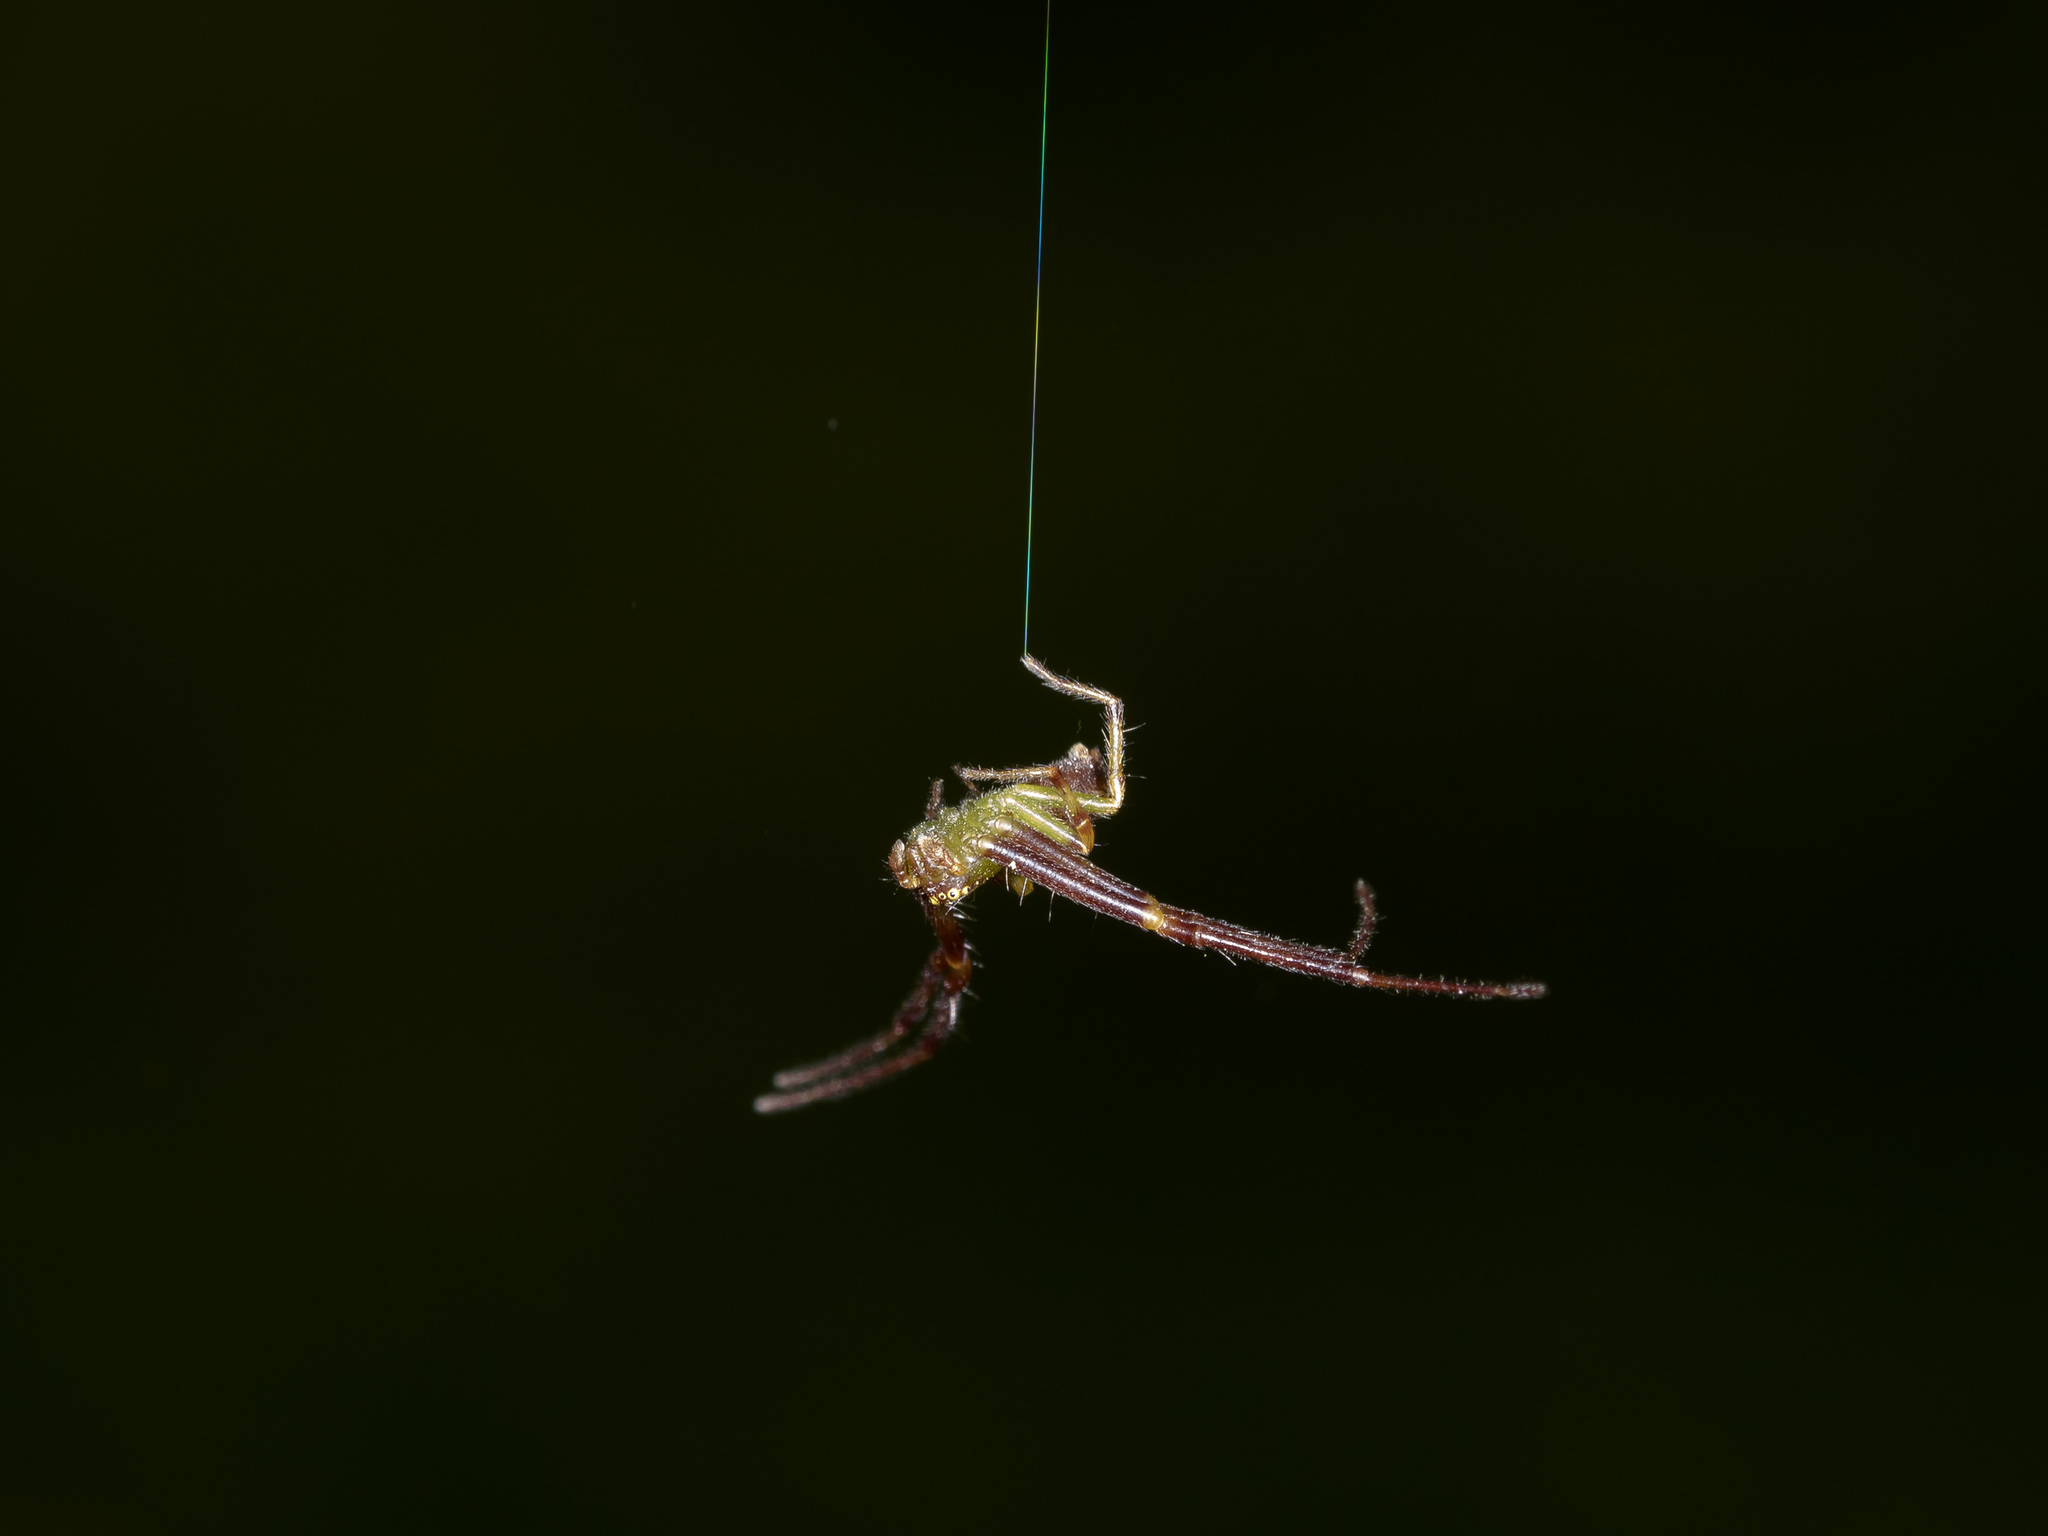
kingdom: Animalia
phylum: Arthropoda
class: Arachnida
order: Araneae
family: Thomisidae
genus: Diaea
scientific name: Diaea suspiciosa
